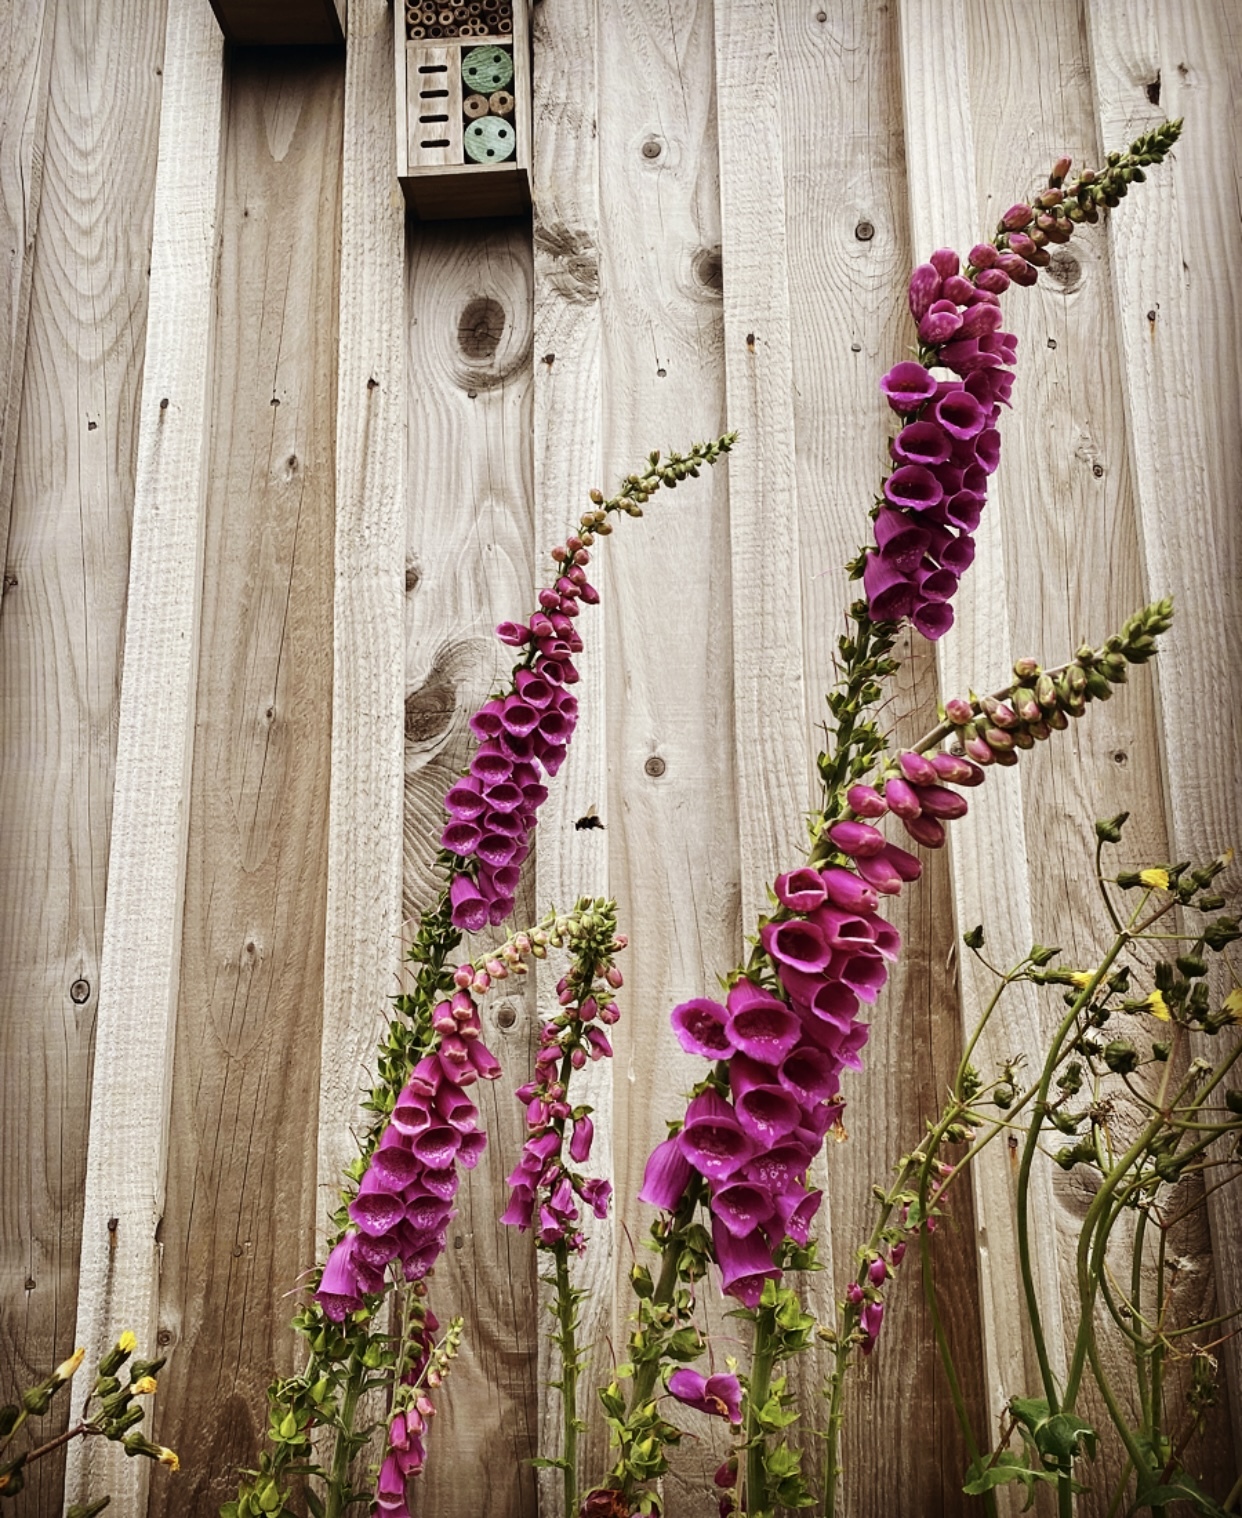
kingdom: Plantae
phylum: Tracheophyta
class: Magnoliopsida
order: Lamiales
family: Plantaginaceae
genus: Digitalis
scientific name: Digitalis purpurea
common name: Foxglove
